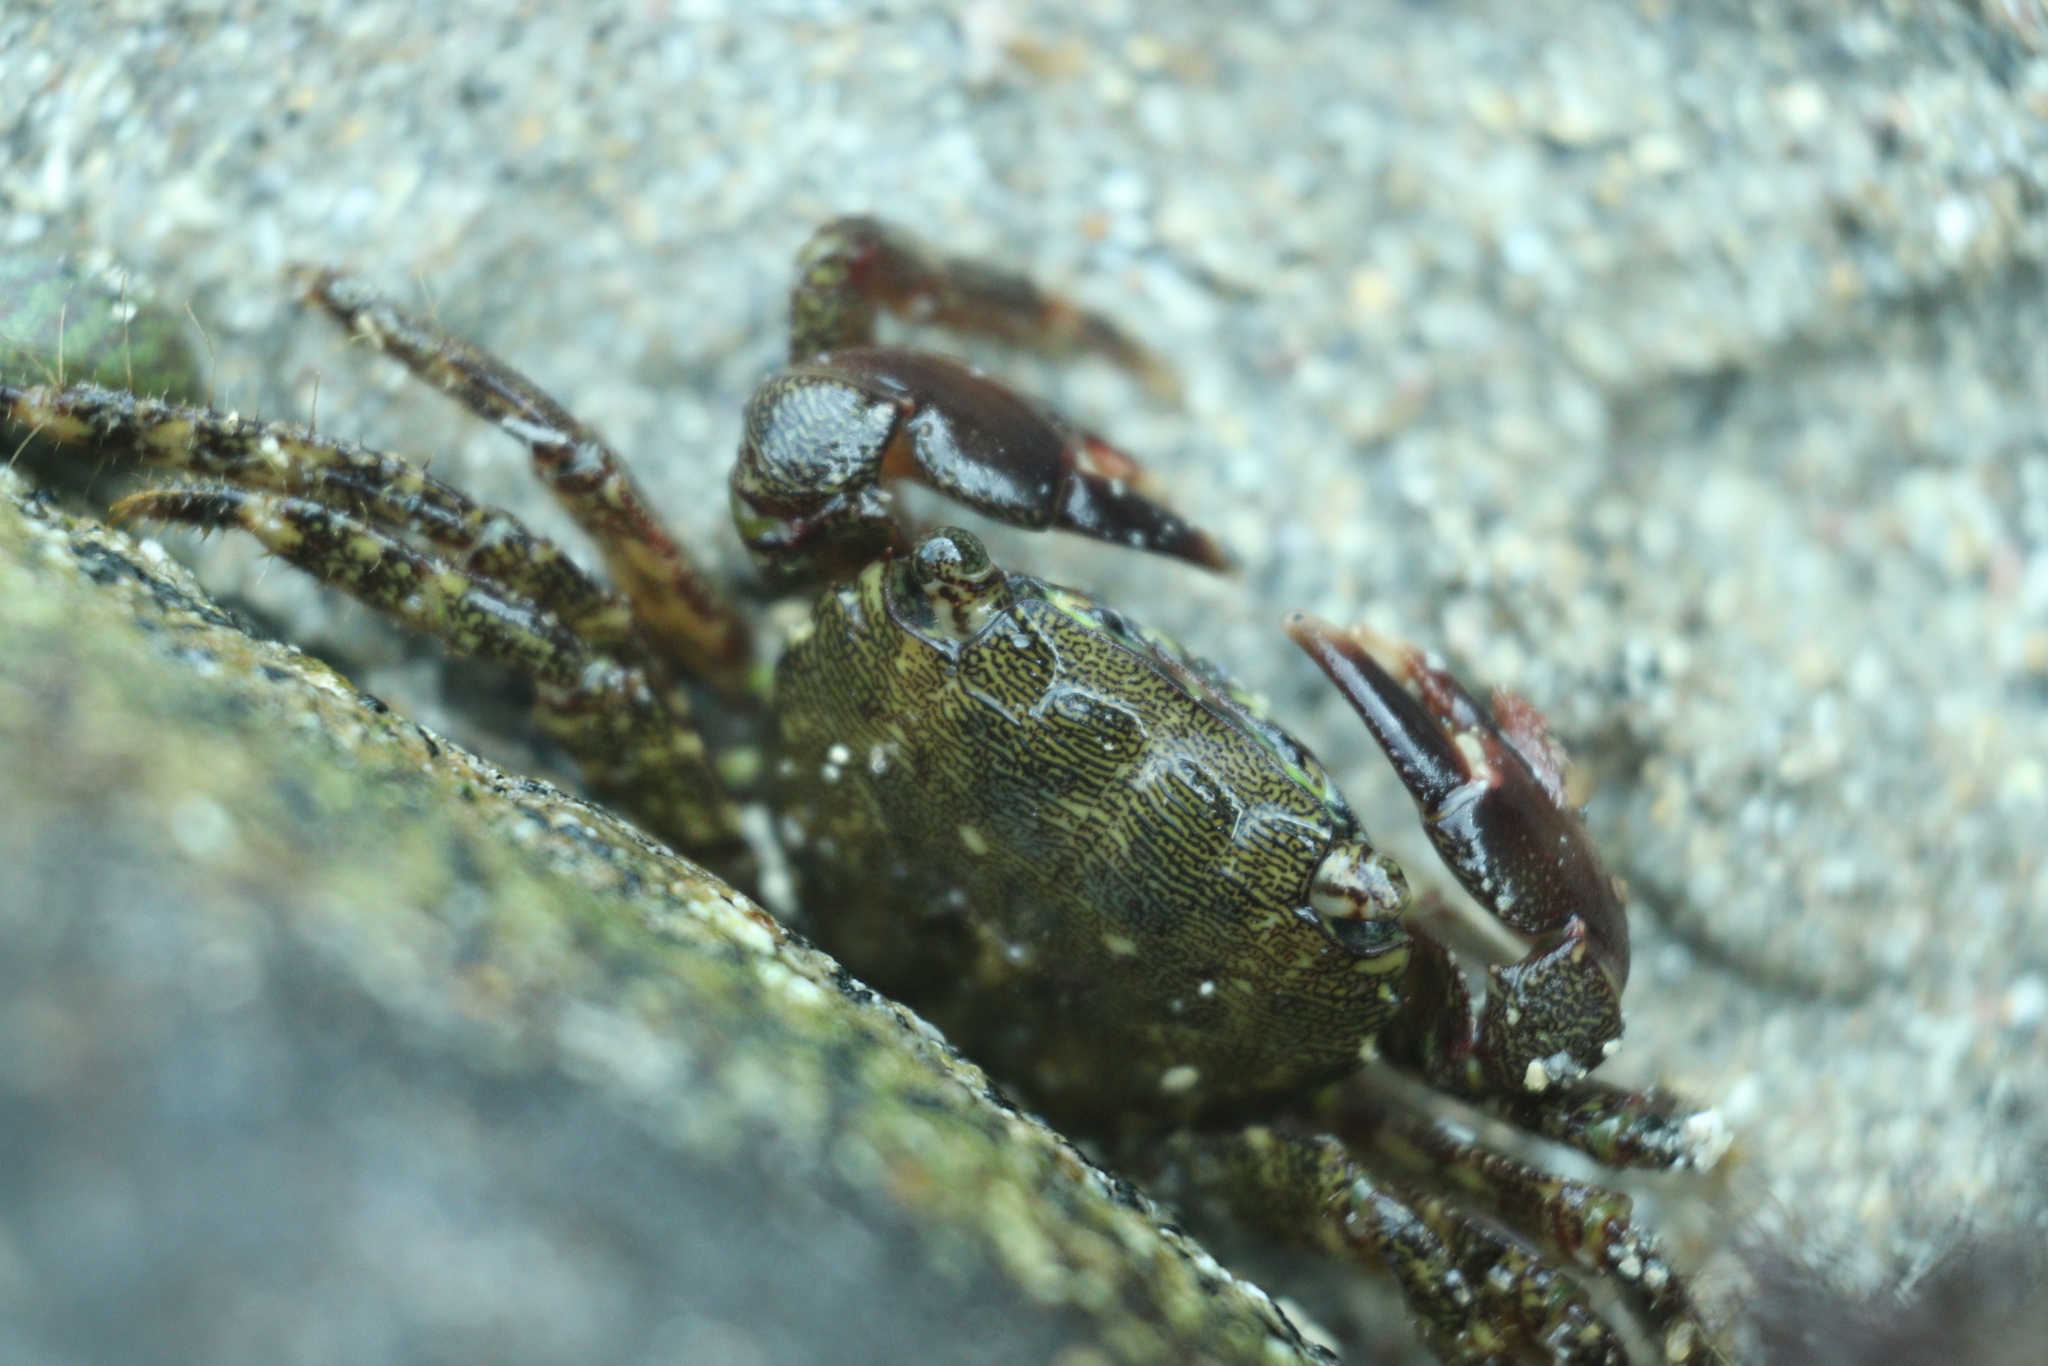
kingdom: Animalia
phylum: Arthropoda
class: Malacostraca
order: Decapoda
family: Grapsidae
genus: Pachygrapsus
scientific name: Pachygrapsus marmoratus
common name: Marbled rock crab
